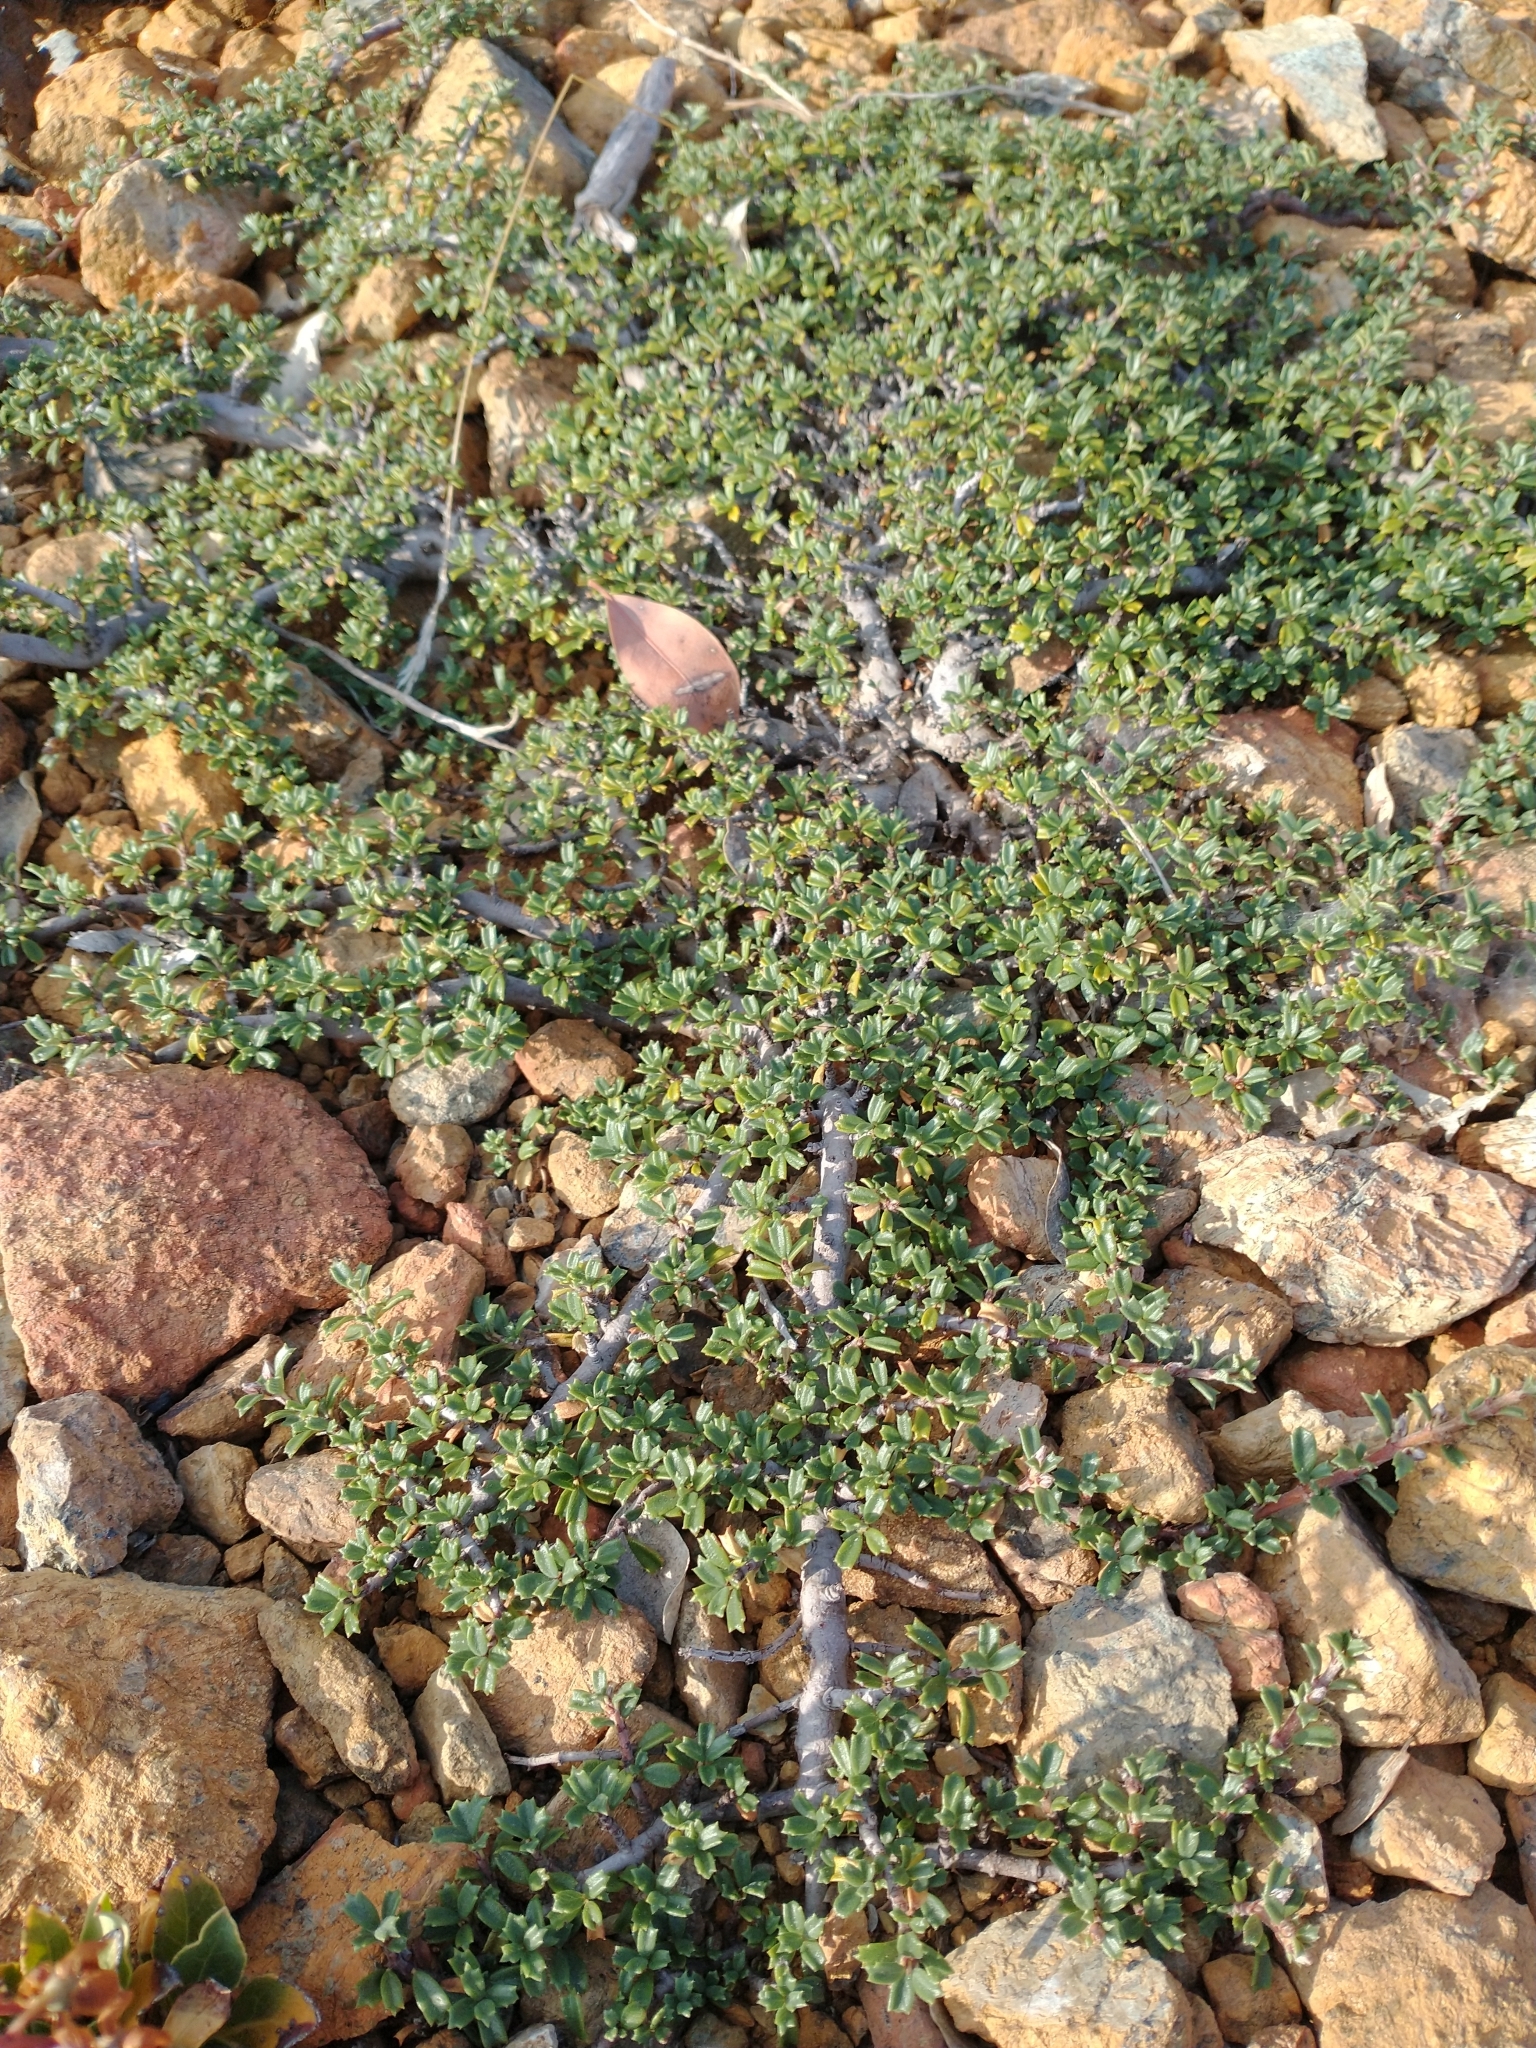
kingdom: Plantae
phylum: Tracheophyta
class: Magnoliopsida
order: Rosales
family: Rhamnaceae
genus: Ceanothus
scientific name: Ceanothus pumilus
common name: Siskiyou-mat
